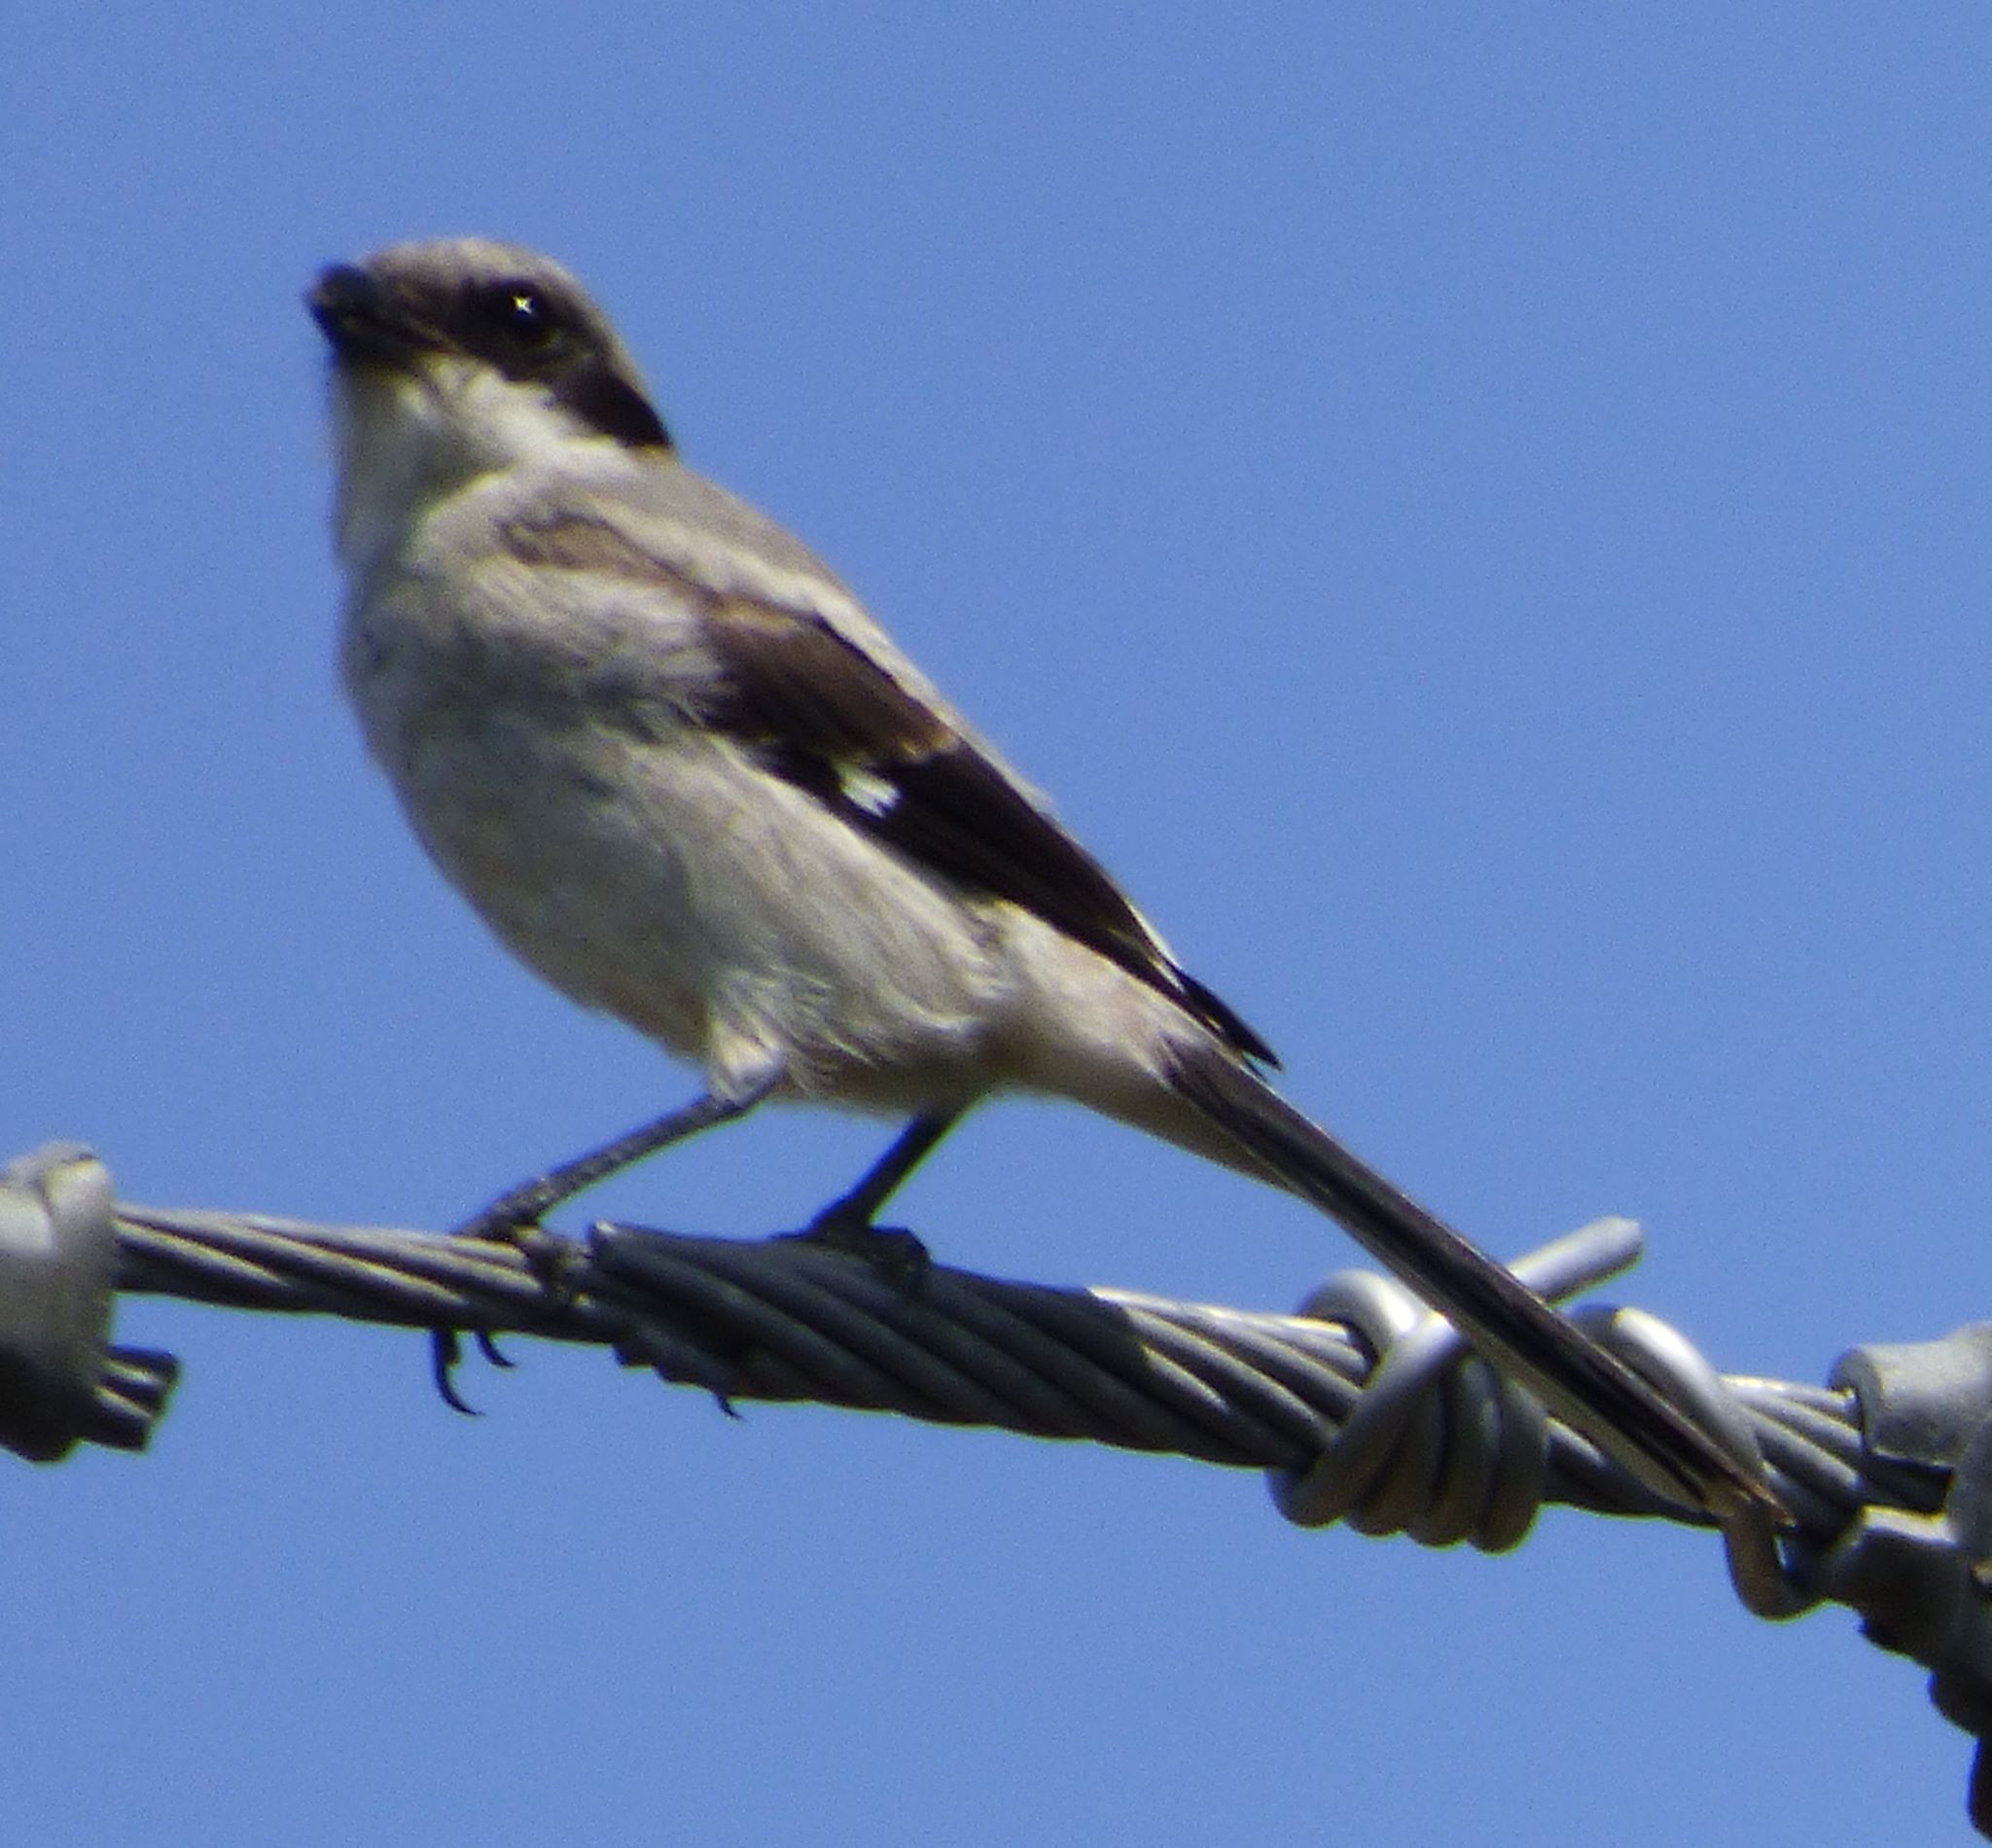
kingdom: Animalia
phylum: Chordata
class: Aves
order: Passeriformes
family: Laniidae
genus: Lanius
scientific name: Lanius ludovicianus
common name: Loggerhead shrike
